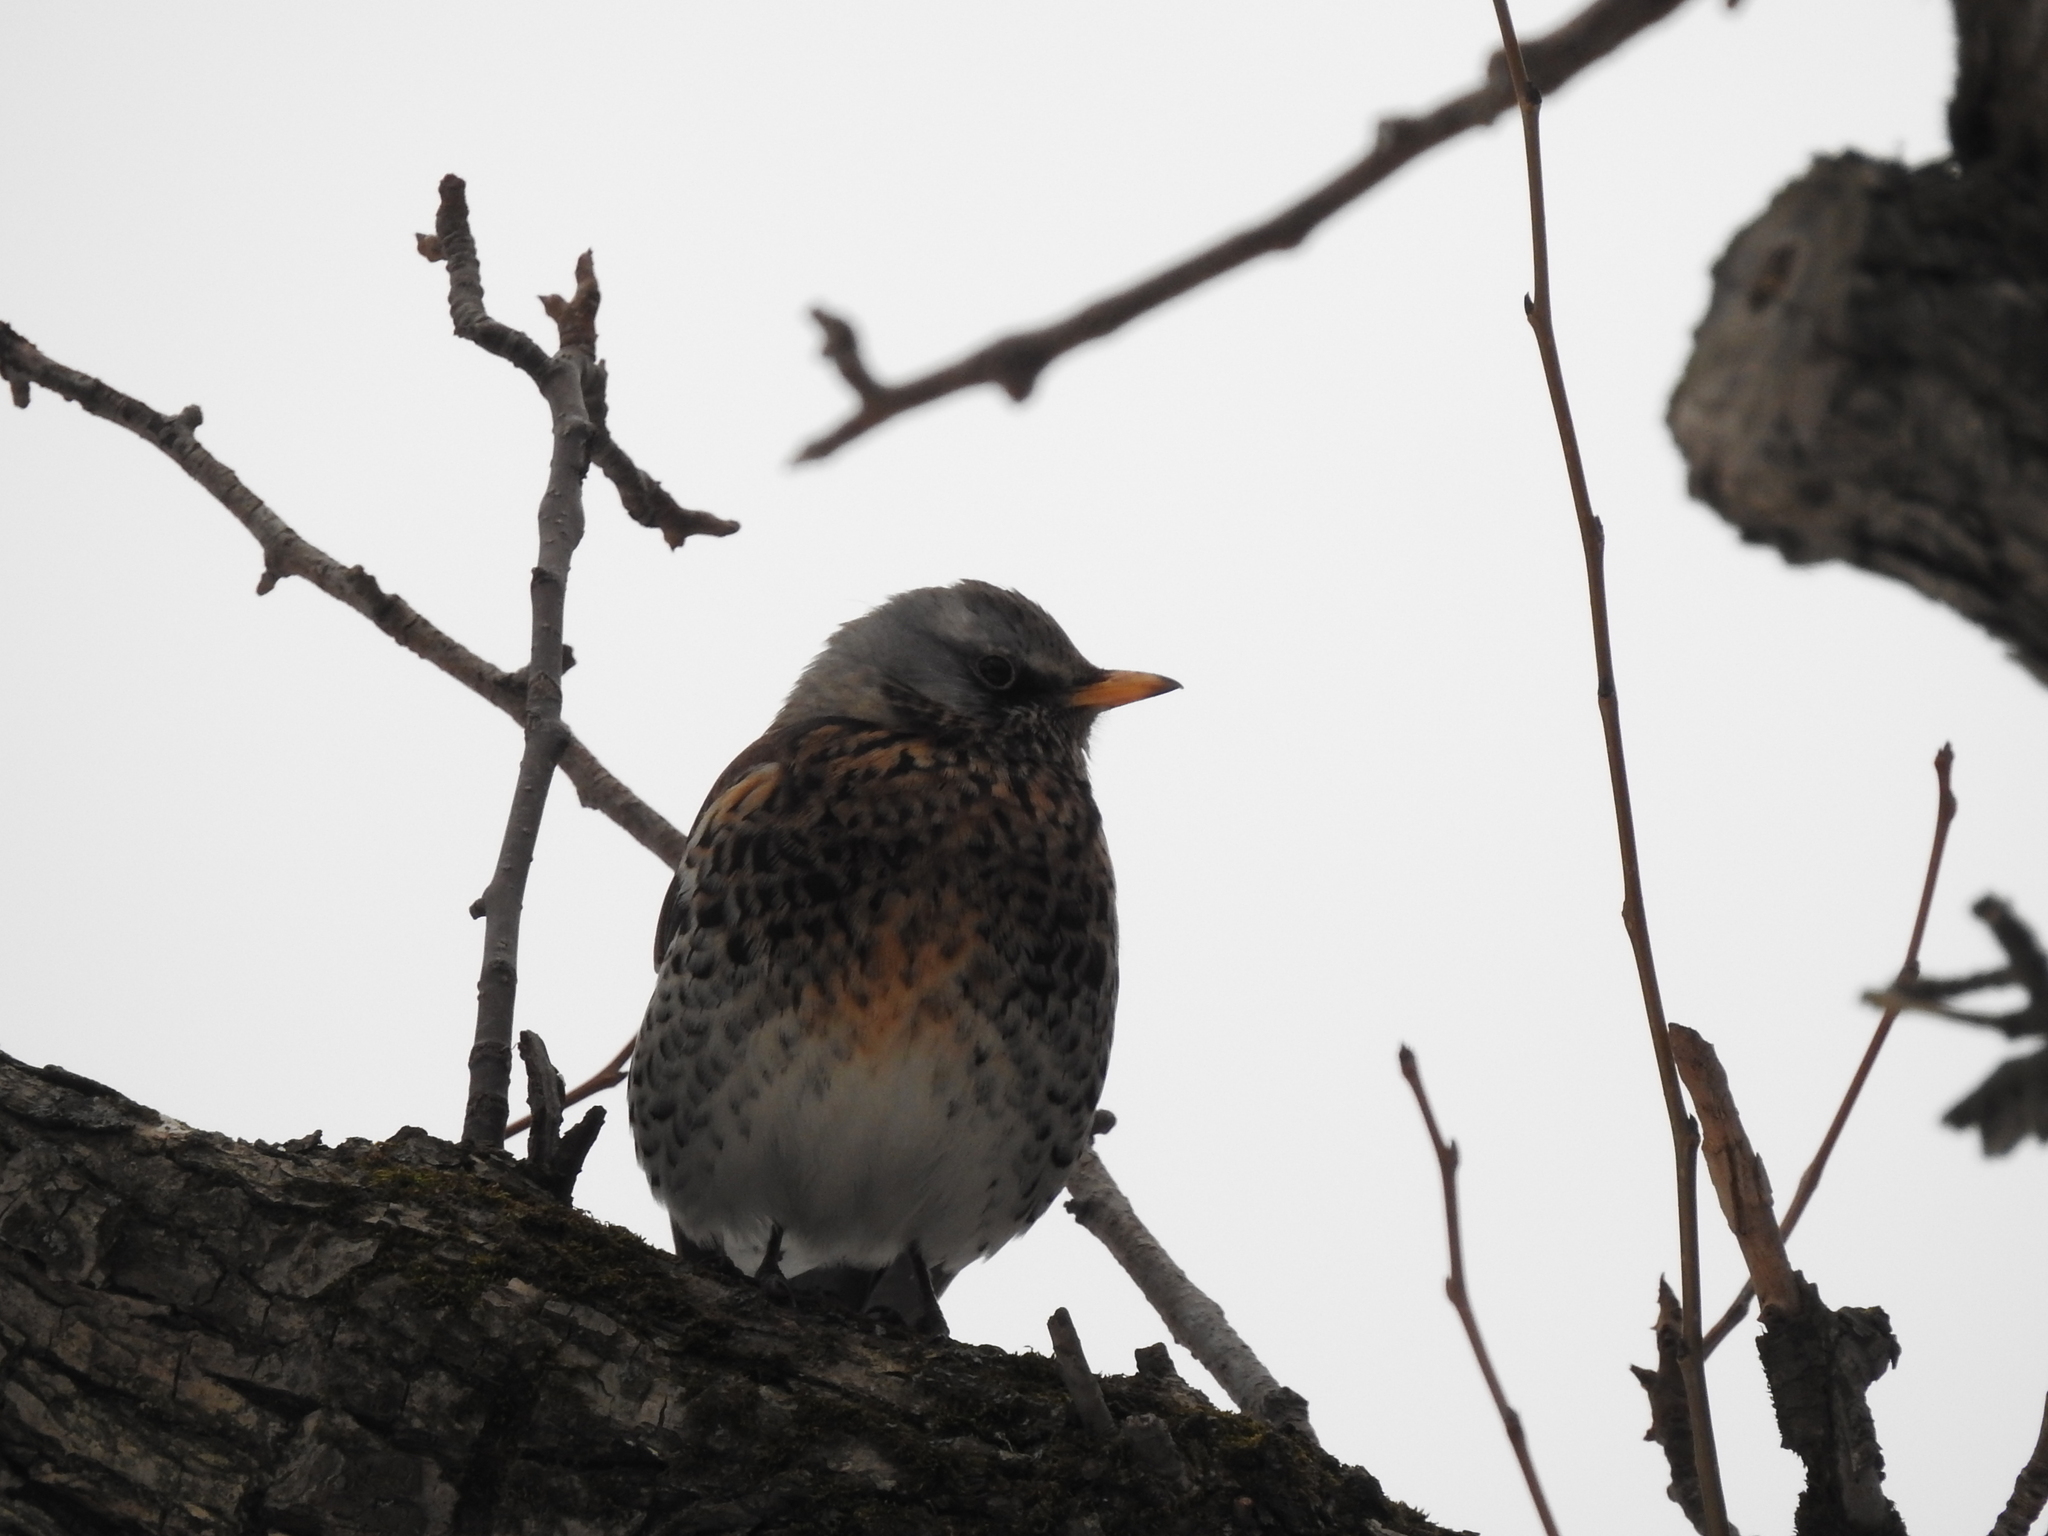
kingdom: Animalia
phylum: Chordata
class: Aves
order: Passeriformes
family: Turdidae
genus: Turdus
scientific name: Turdus pilaris
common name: Fieldfare
